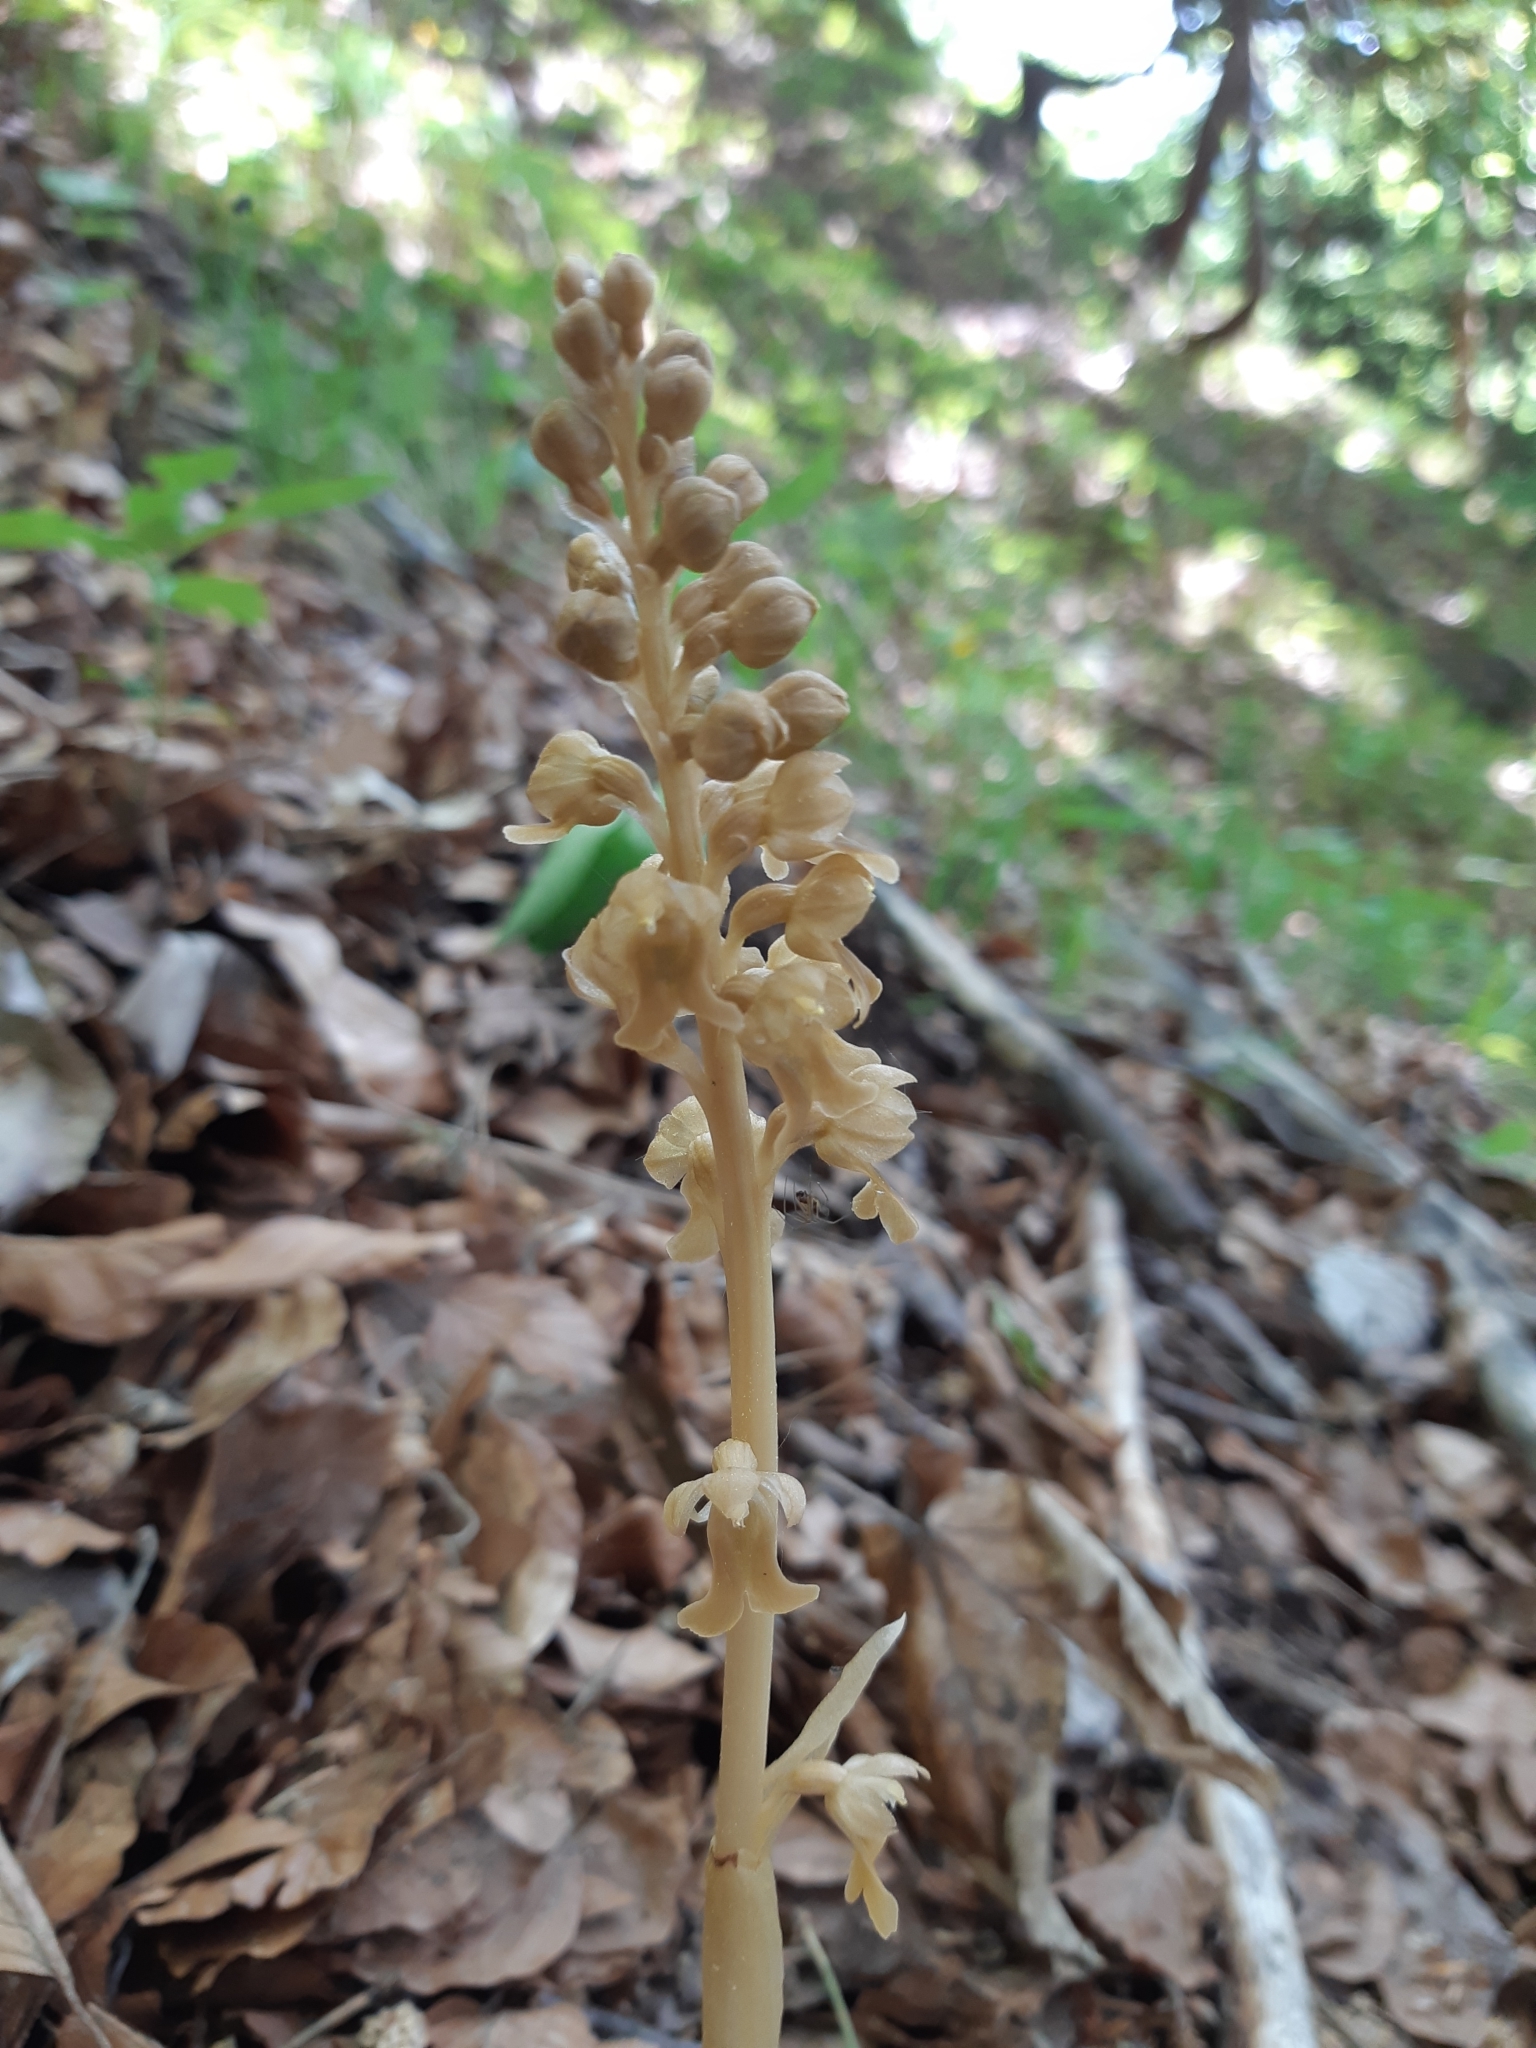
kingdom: Plantae
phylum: Tracheophyta
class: Liliopsida
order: Asparagales
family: Orchidaceae
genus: Neottia
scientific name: Neottia nidus-avis
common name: Bird's-nest orchid
